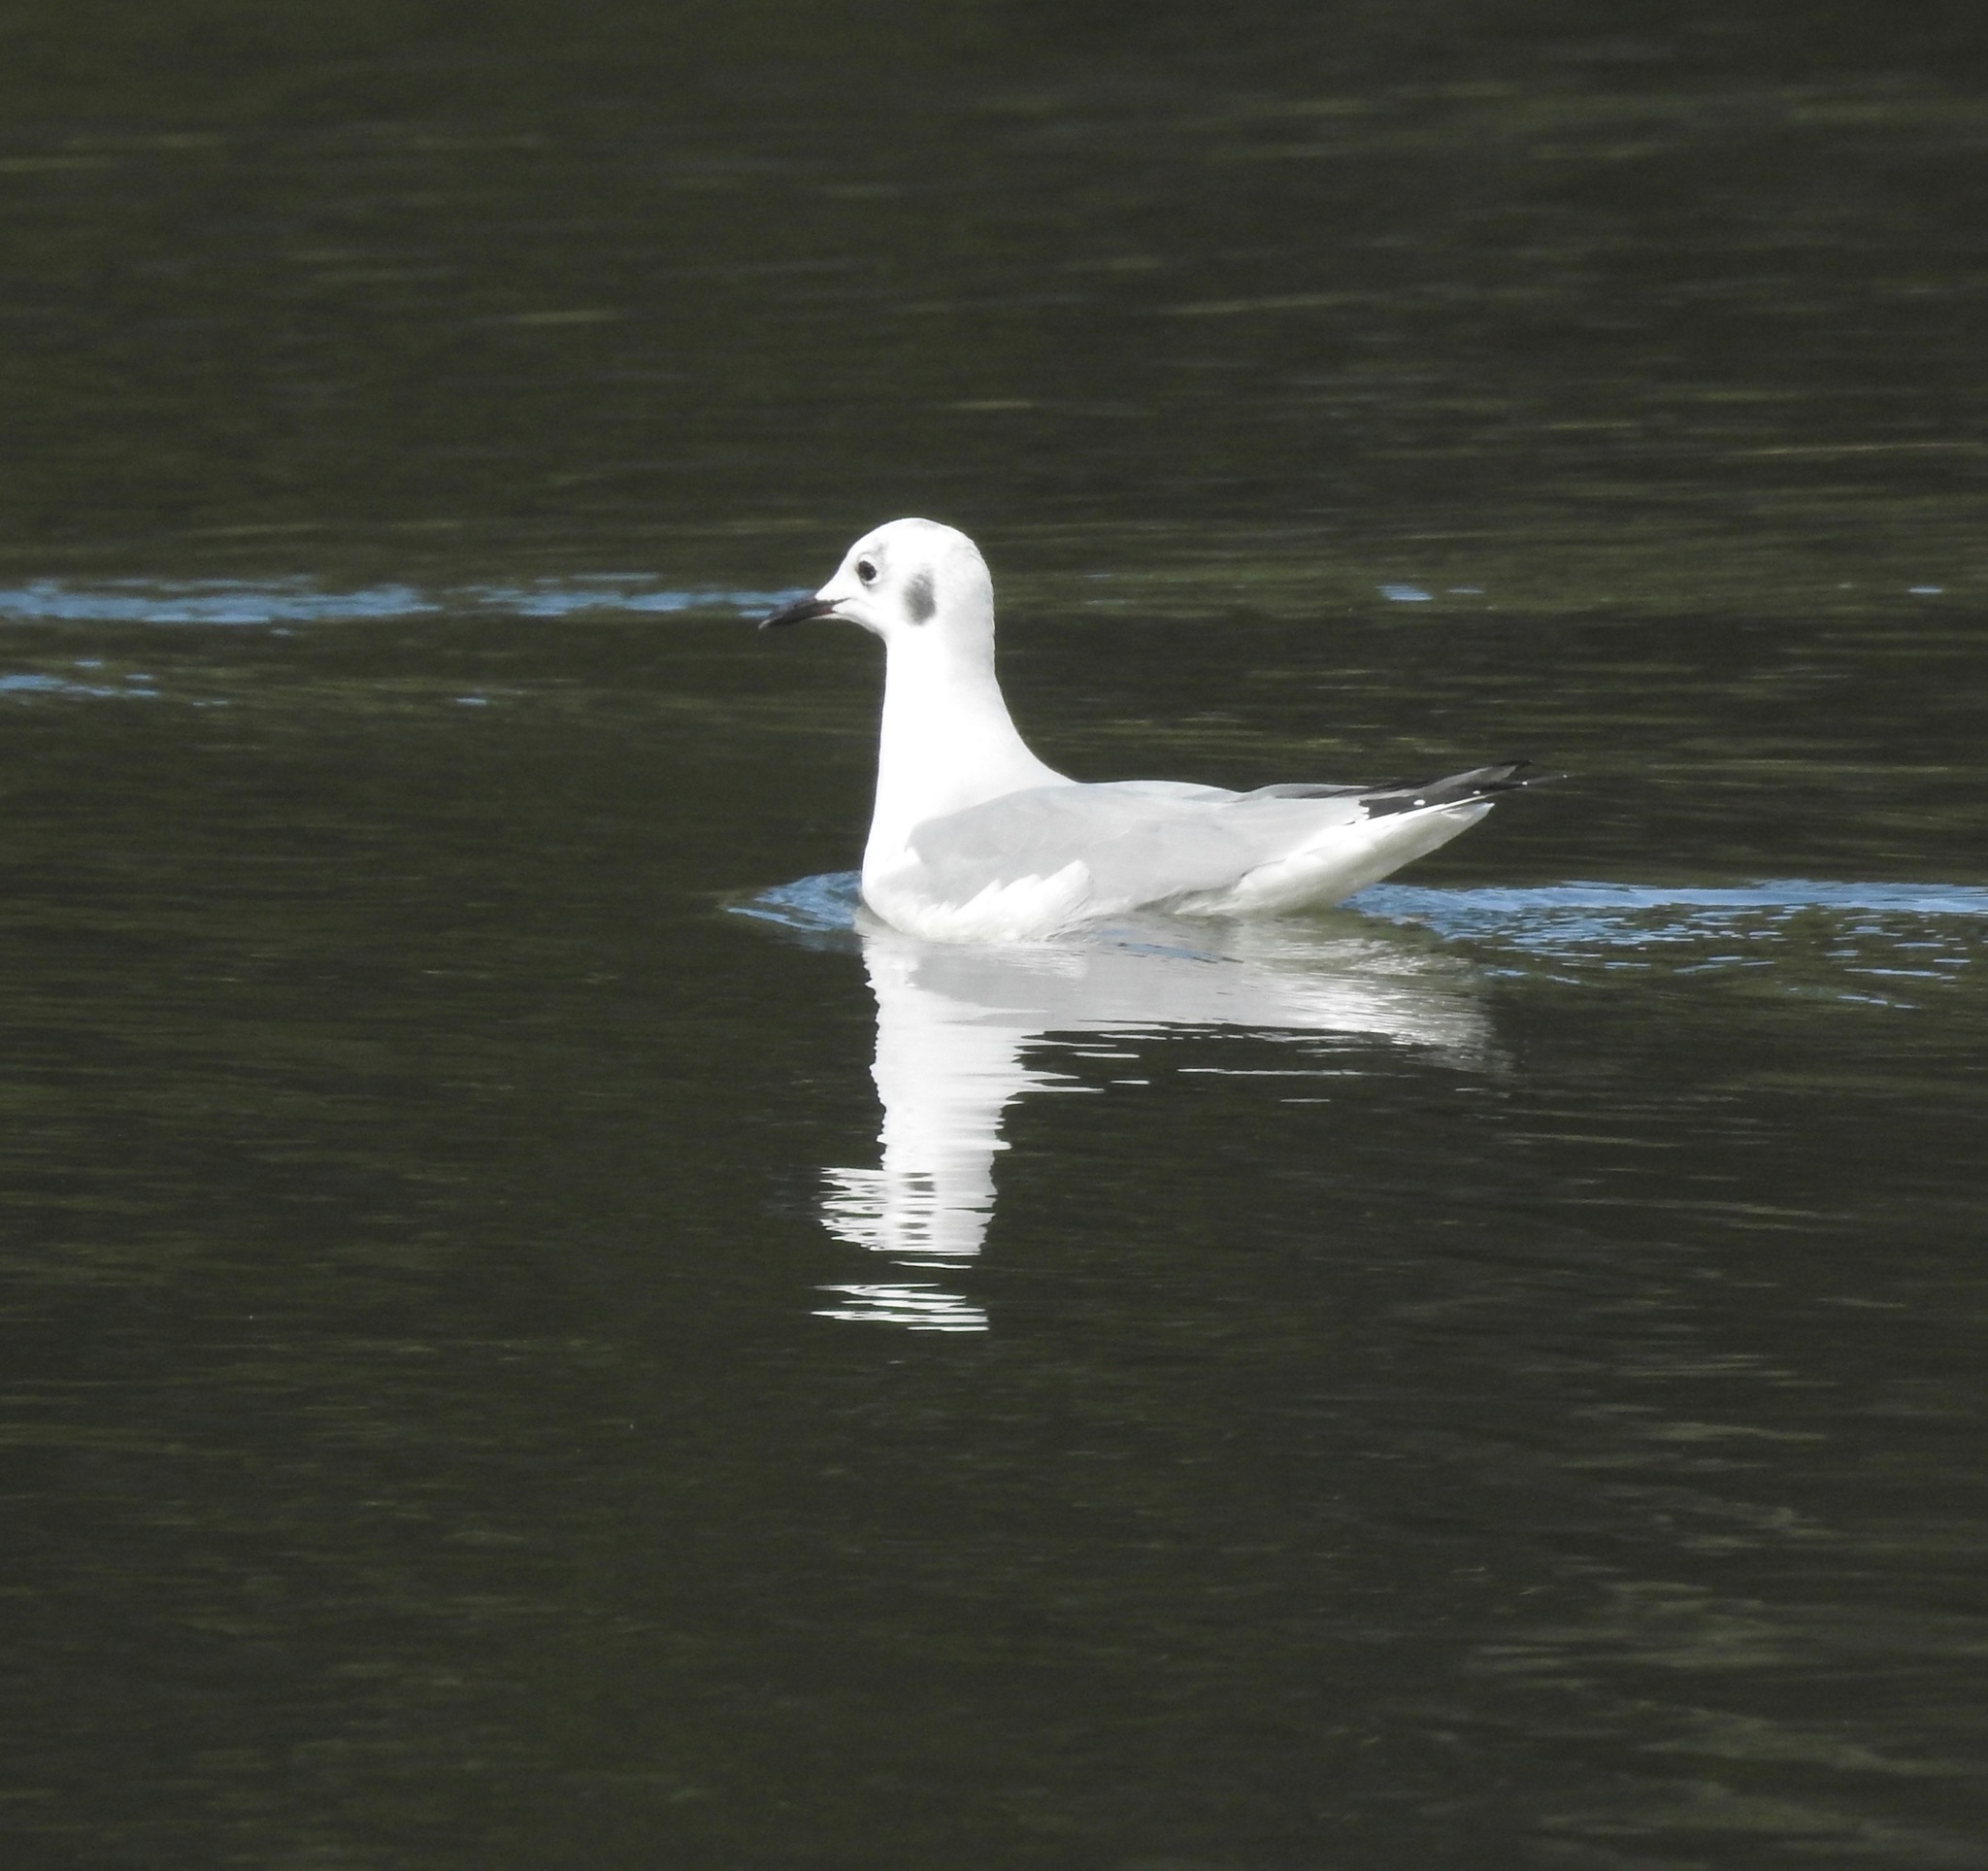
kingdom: Animalia
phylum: Chordata
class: Aves
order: Charadriiformes
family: Laridae
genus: Chroicocephalus
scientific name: Chroicocephalus philadelphia
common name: Bonaparte's gull
